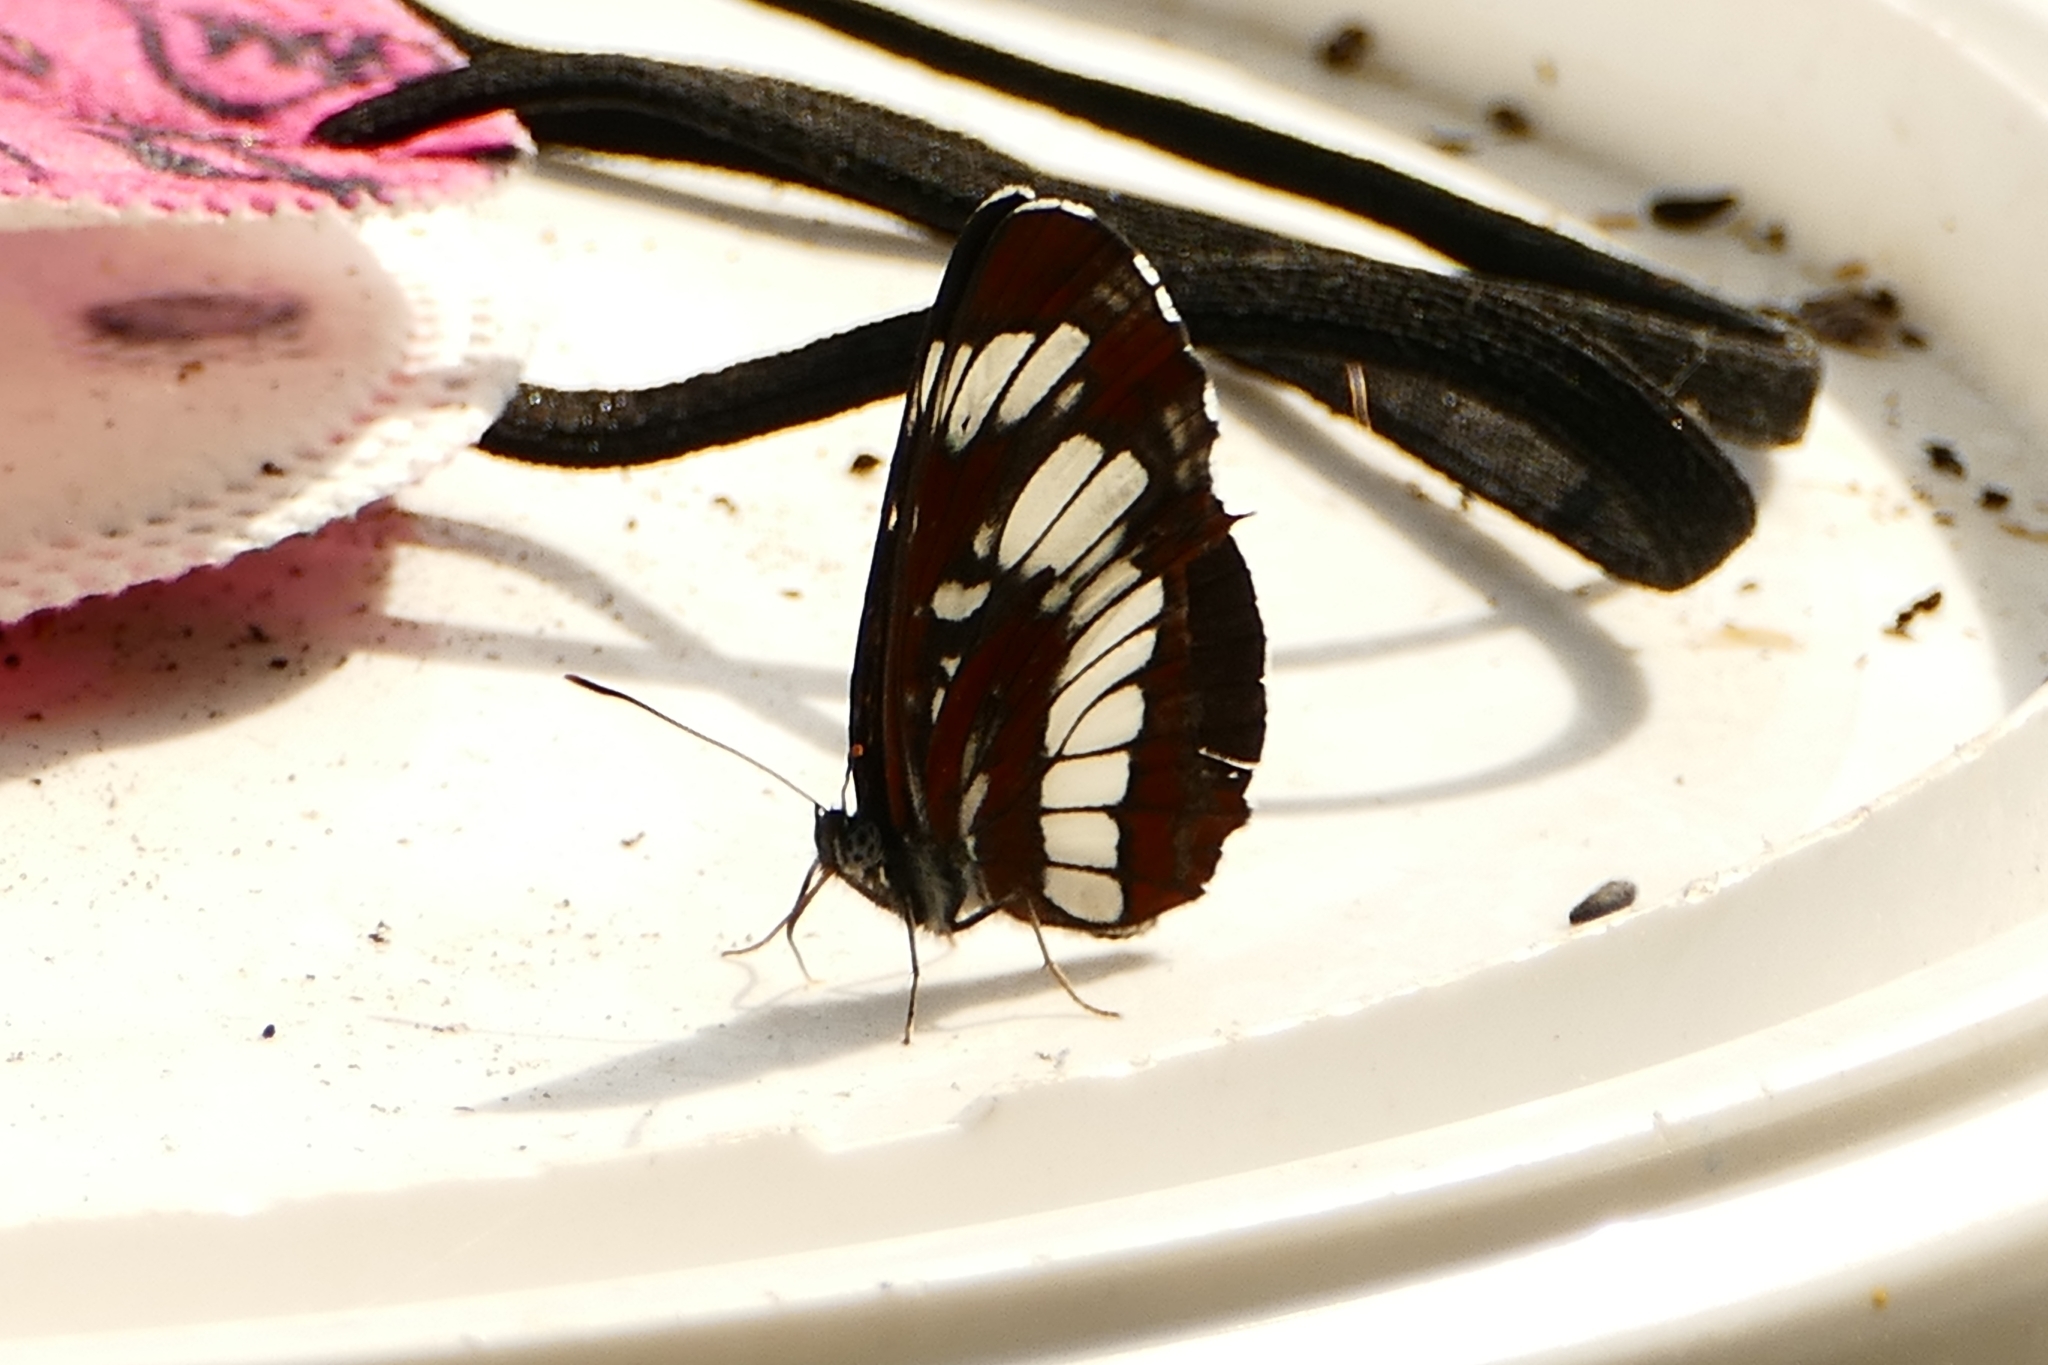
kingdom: Animalia
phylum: Arthropoda
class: Insecta
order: Lepidoptera
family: Nymphalidae
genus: Neptis
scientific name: Neptis rivularis
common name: Hungarian glider
